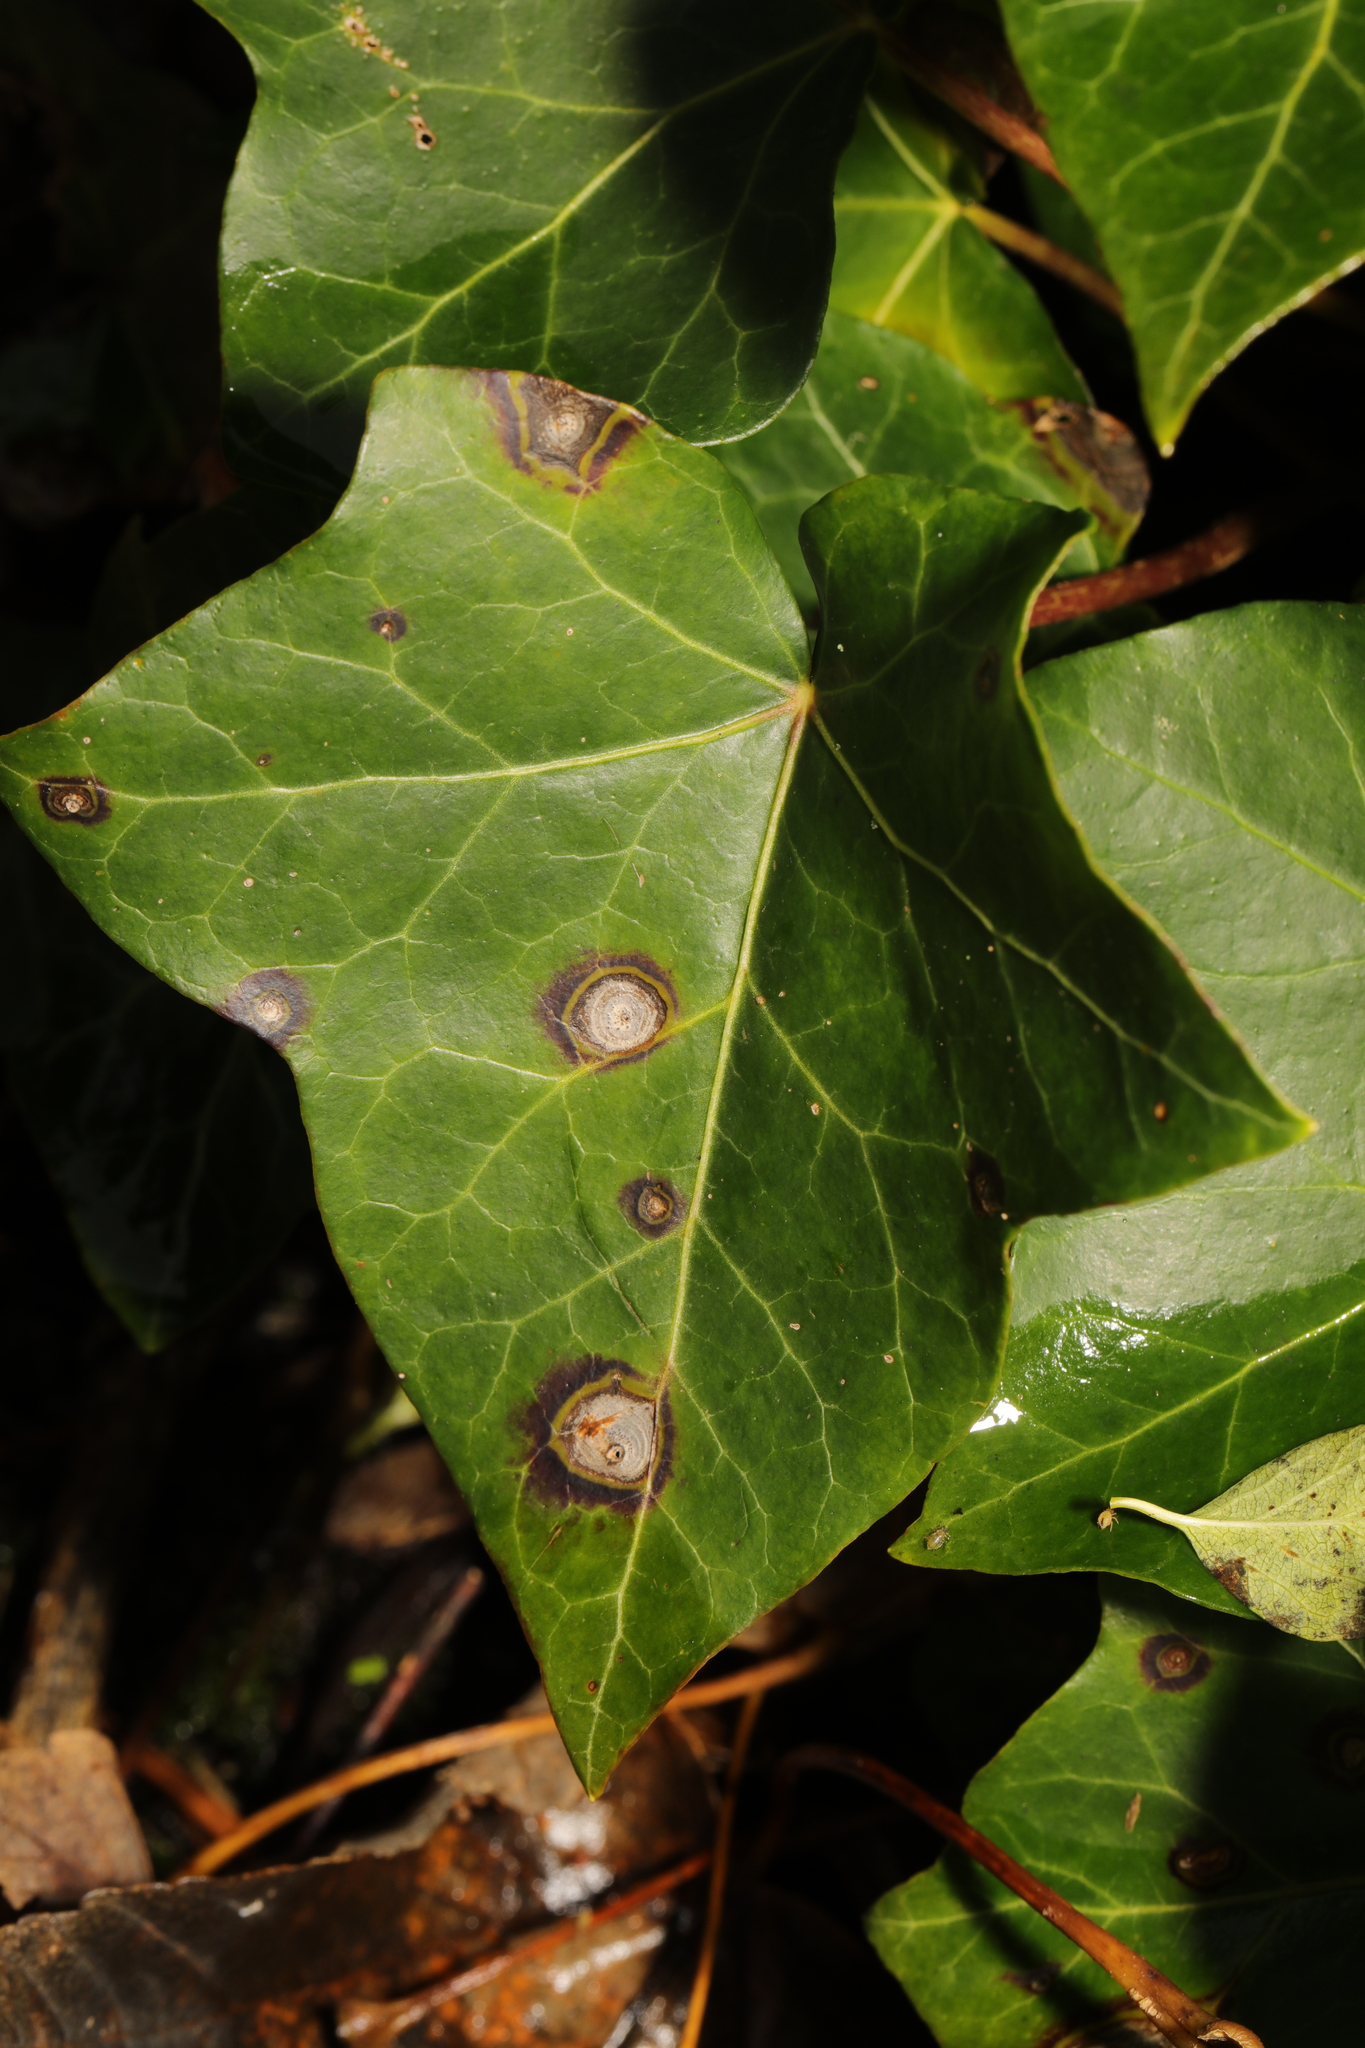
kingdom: Plantae
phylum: Tracheophyta
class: Magnoliopsida
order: Apiales
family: Araliaceae
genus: Hedera
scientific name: Hedera helix
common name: Ivy
